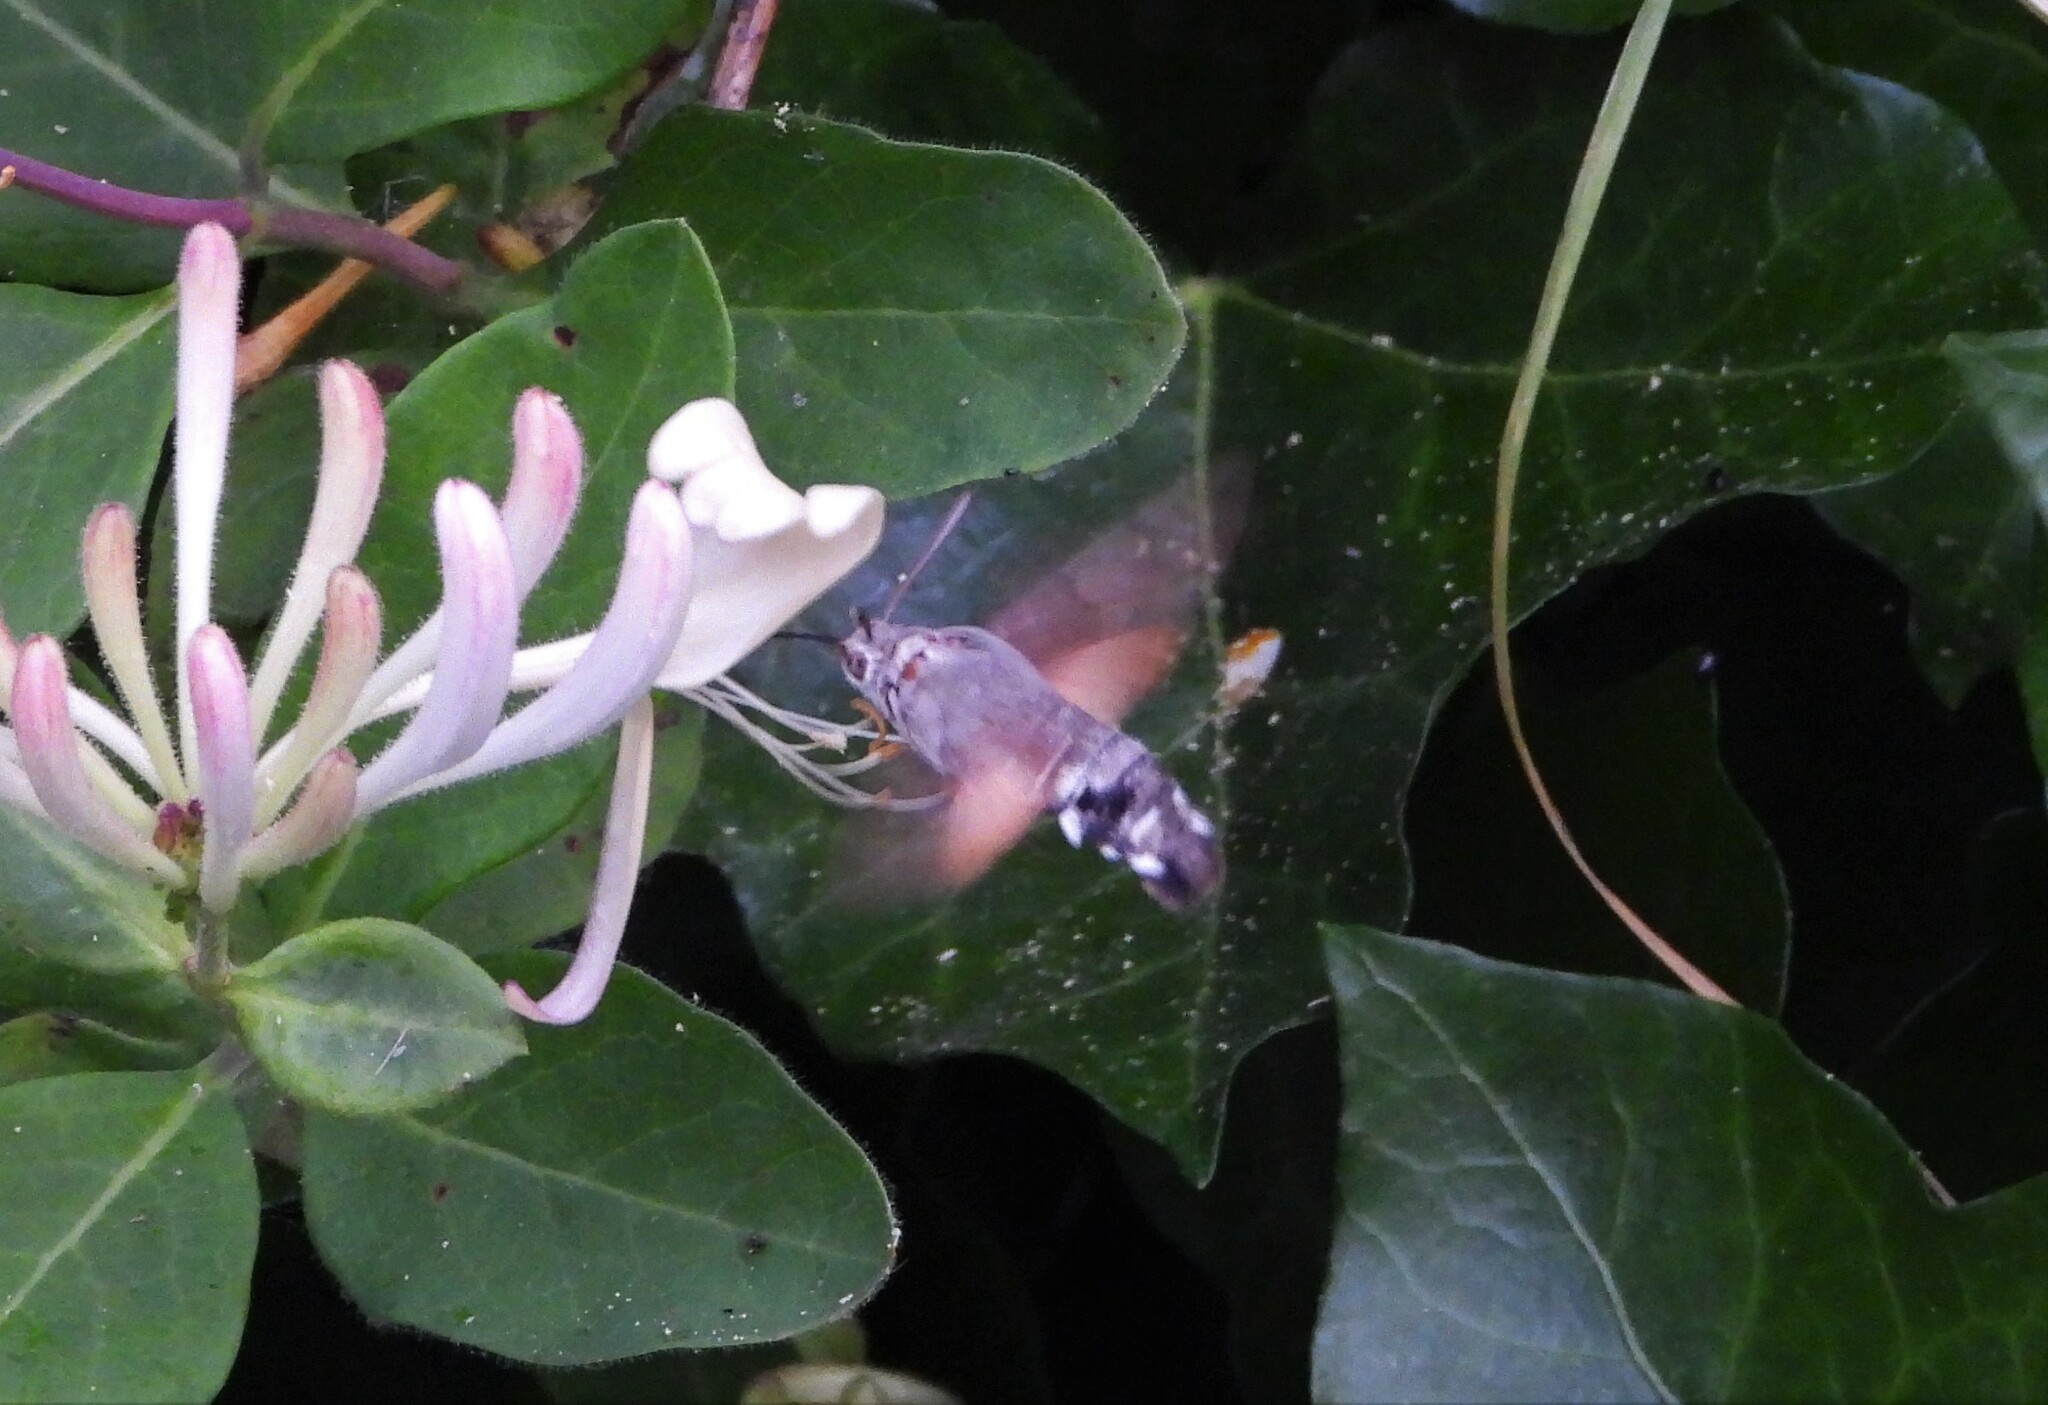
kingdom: Animalia
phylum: Arthropoda
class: Insecta
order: Lepidoptera
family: Sphingidae
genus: Macroglossum
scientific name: Macroglossum stellatarum
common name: Humming-bird hawk-moth
